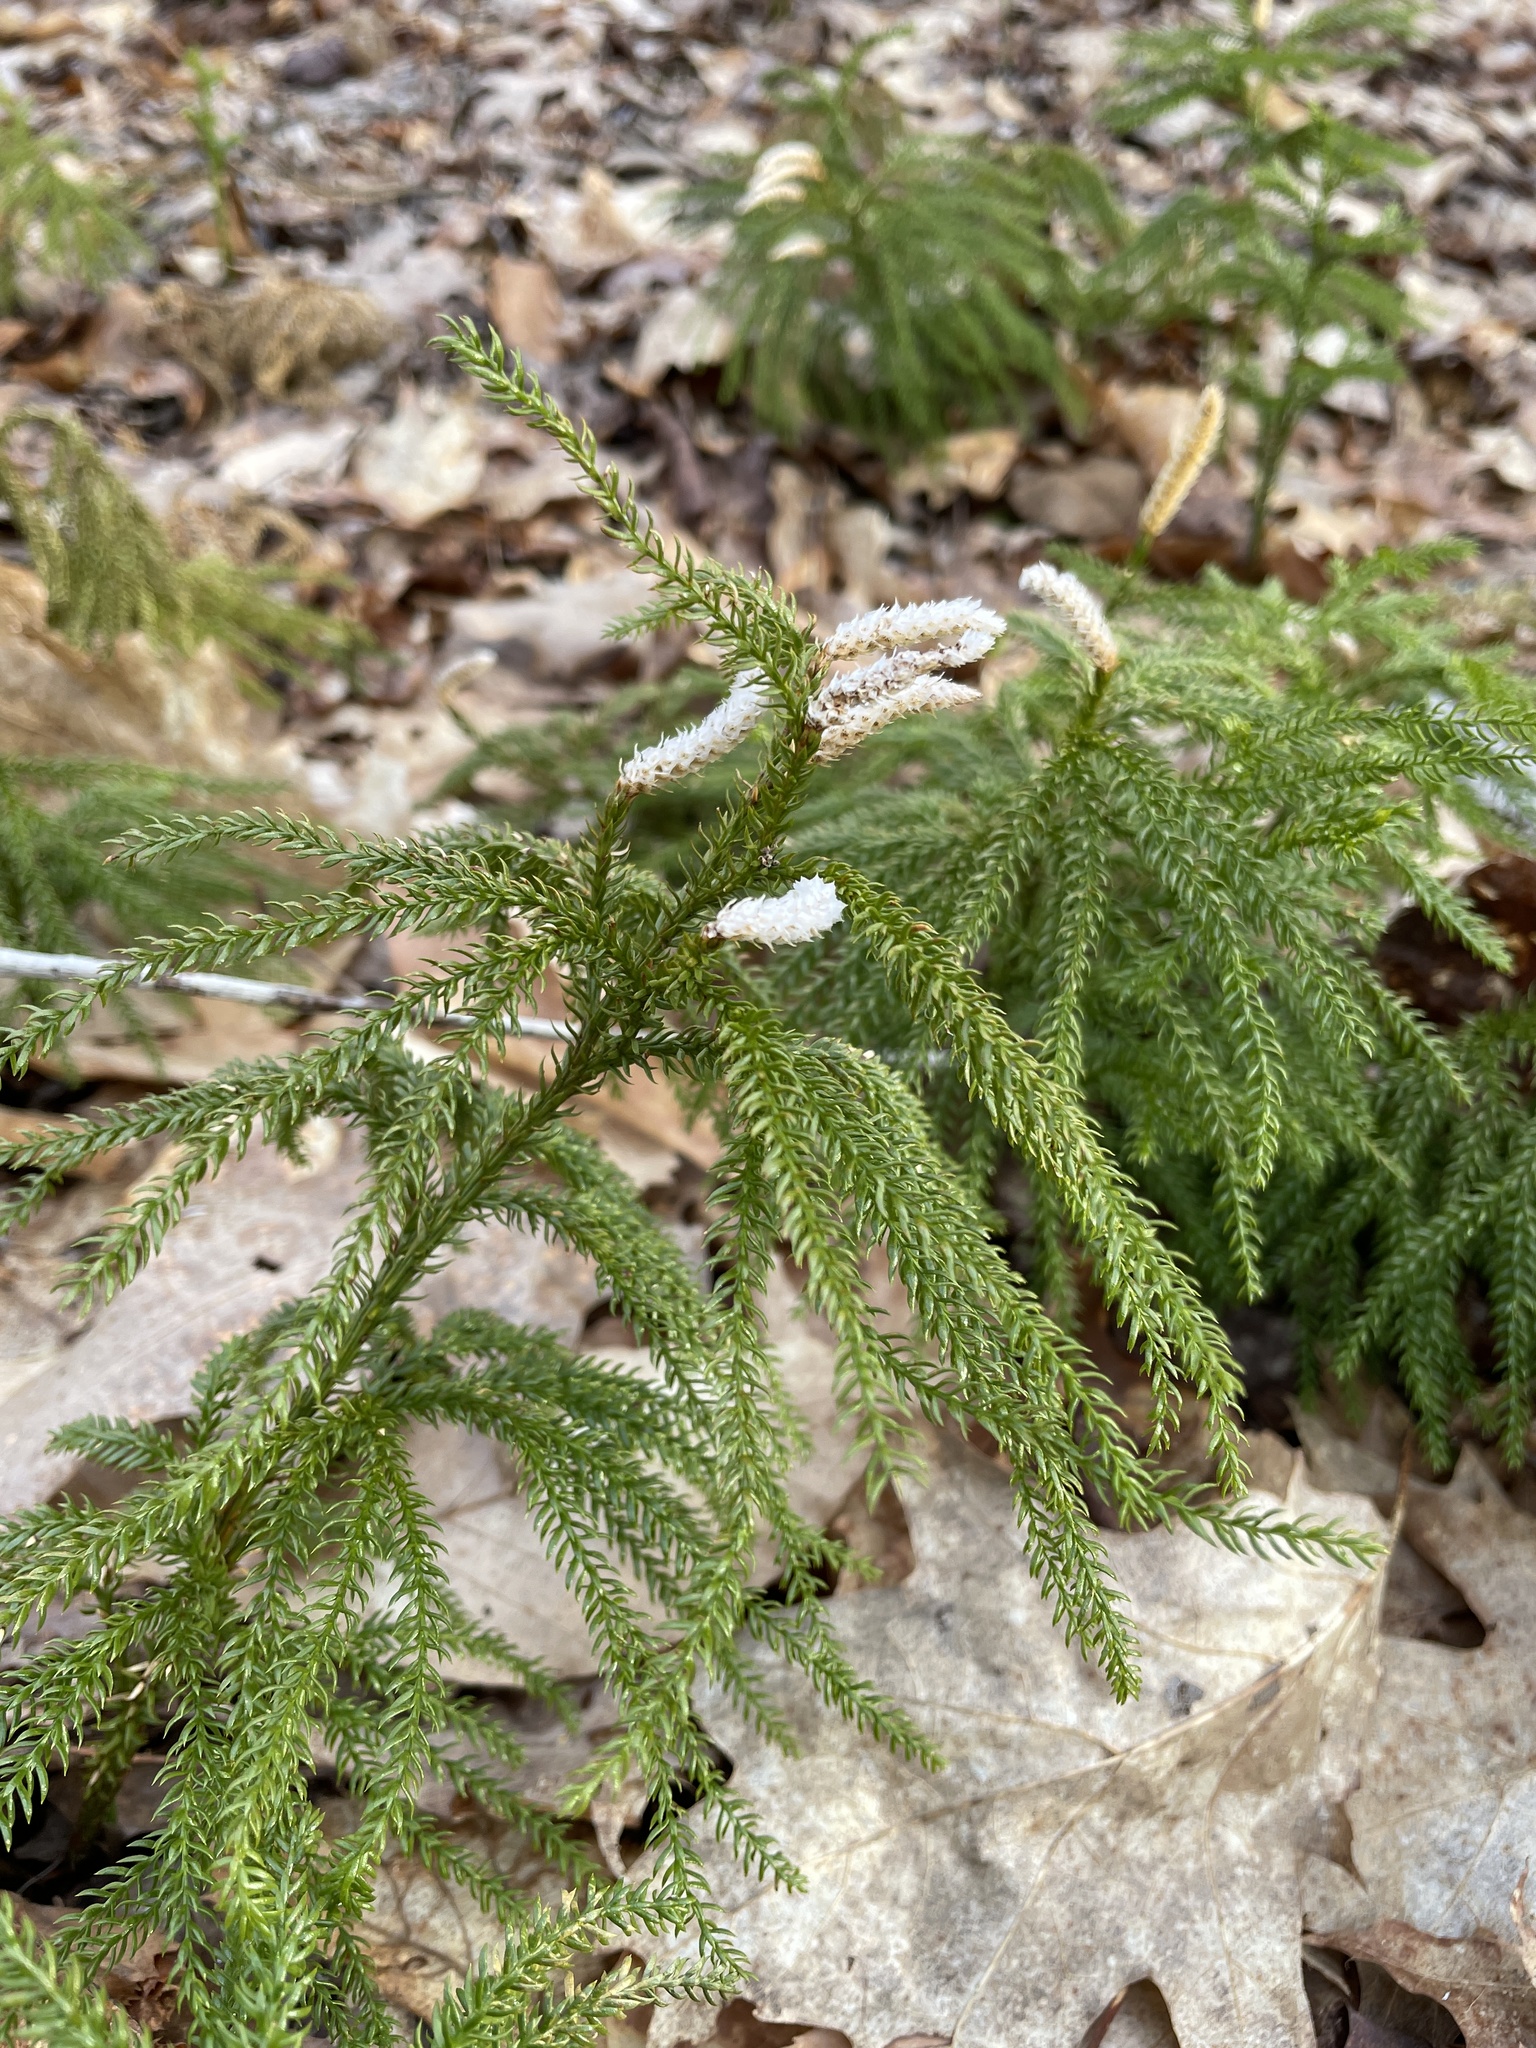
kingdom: Plantae
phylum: Tracheophyta
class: Lycopodiopsida
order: Lycopodiales
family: Lycopodiaceae
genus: Dendrolycopodium
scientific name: Dendrolycopodium dendroideum
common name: Northern tree-clubmoss
